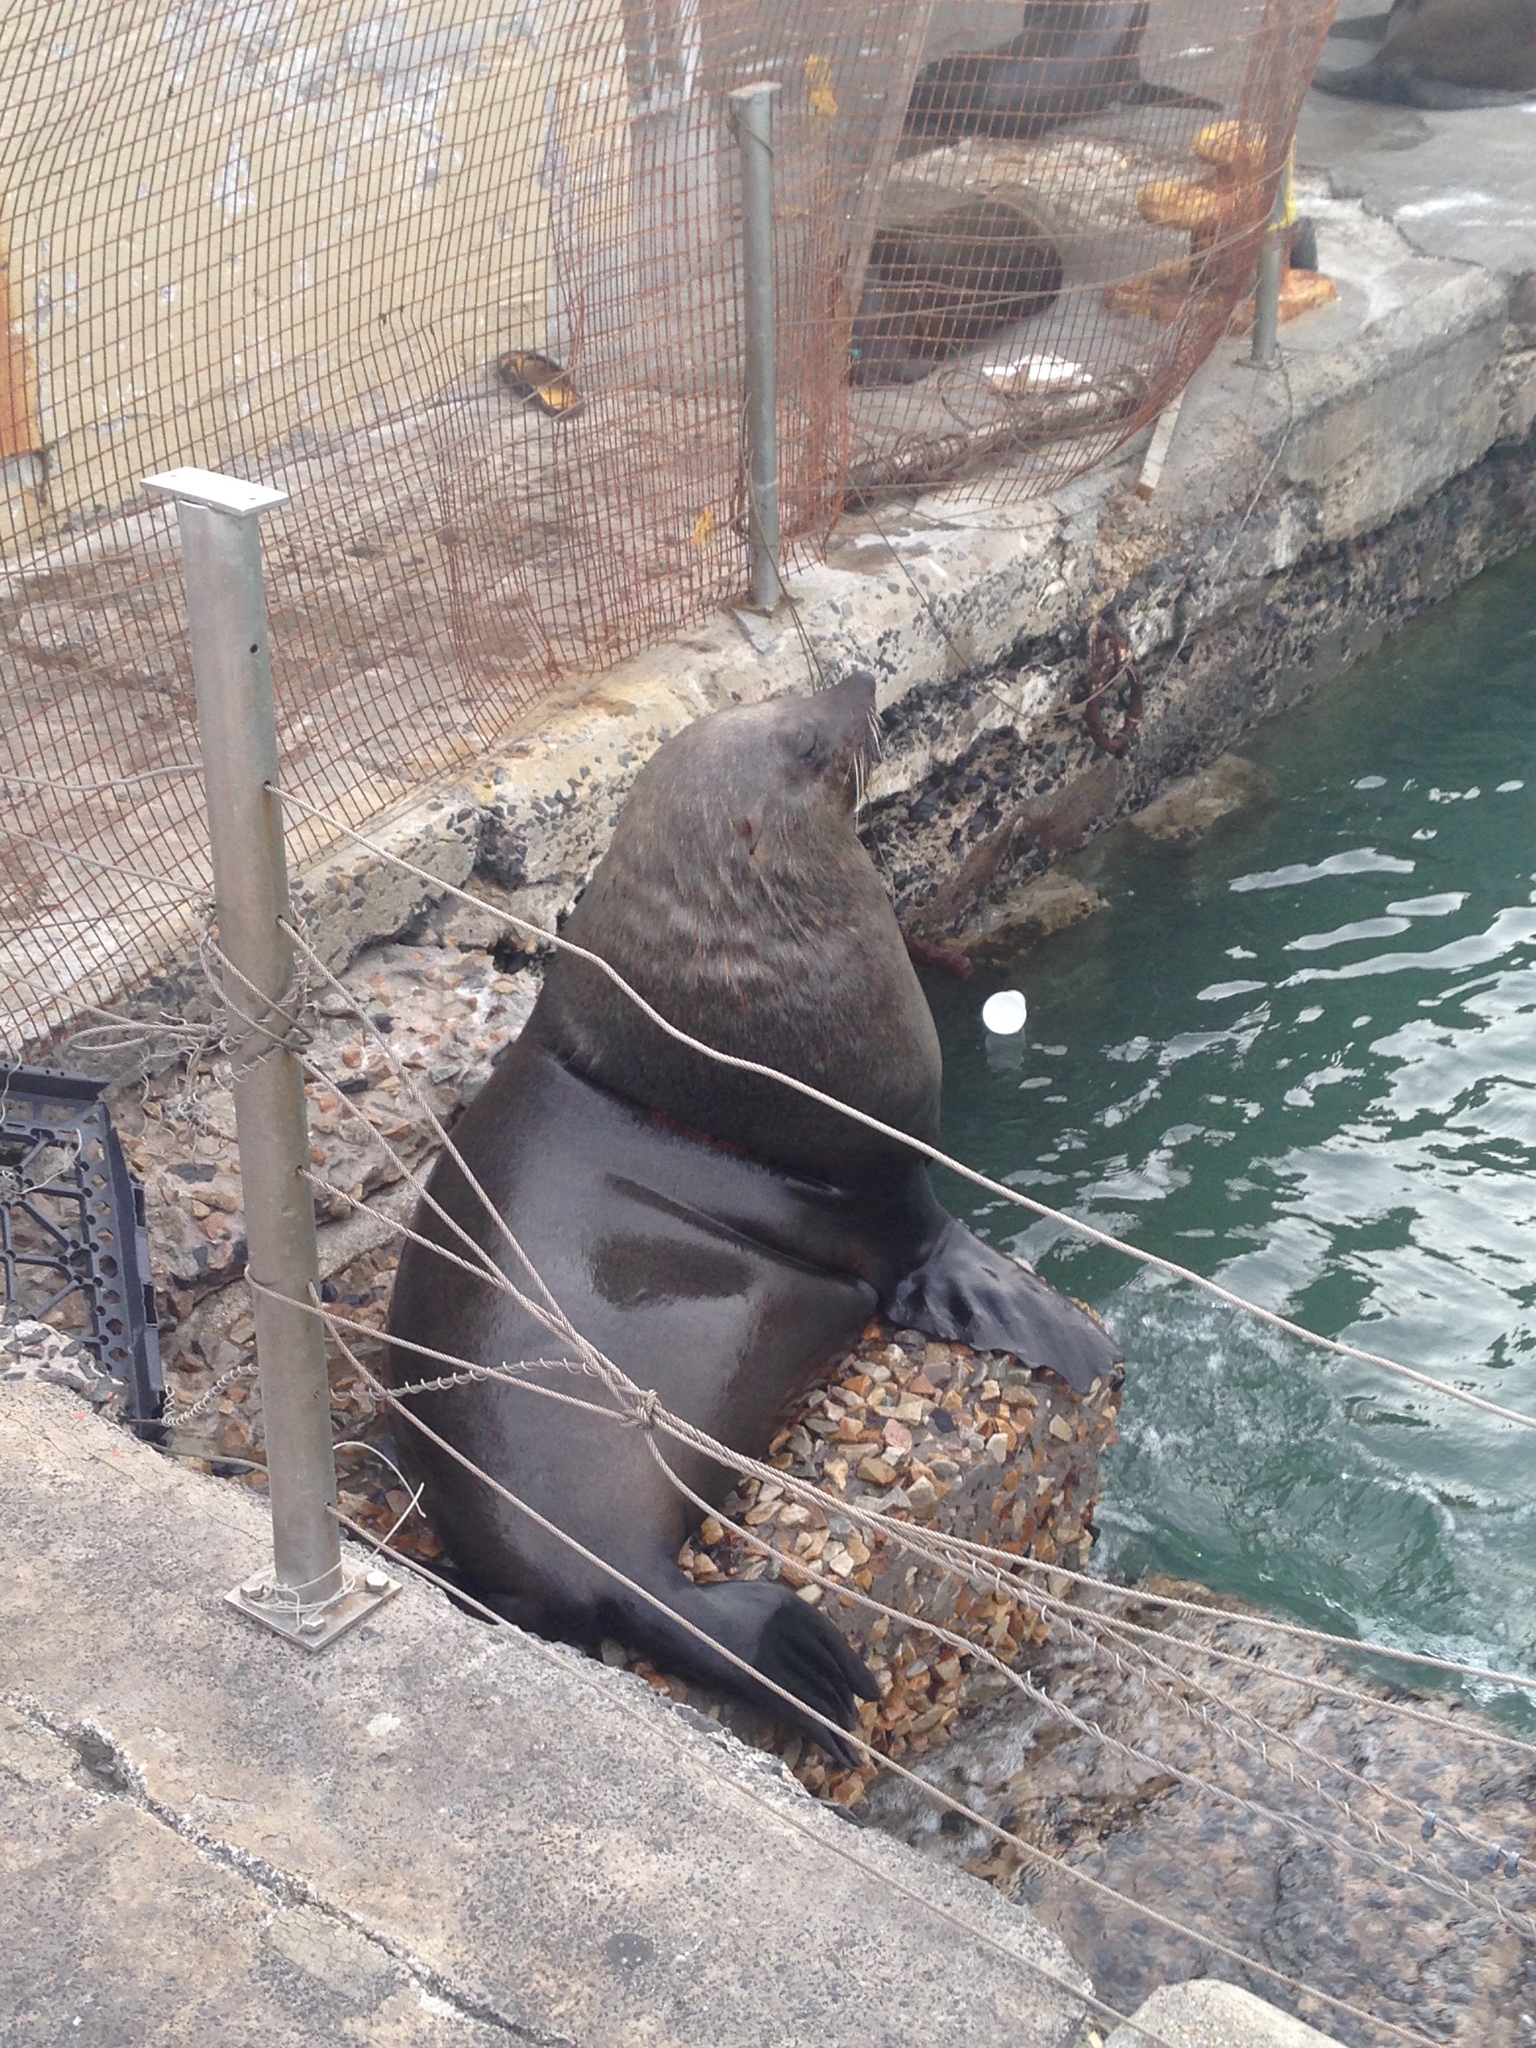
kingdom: Animalia
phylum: Chordata
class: Mammalia
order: Carnivora
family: Otariidae
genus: Arctocephalus
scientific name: Arctocephalus pusillus
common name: Brown fur seal
